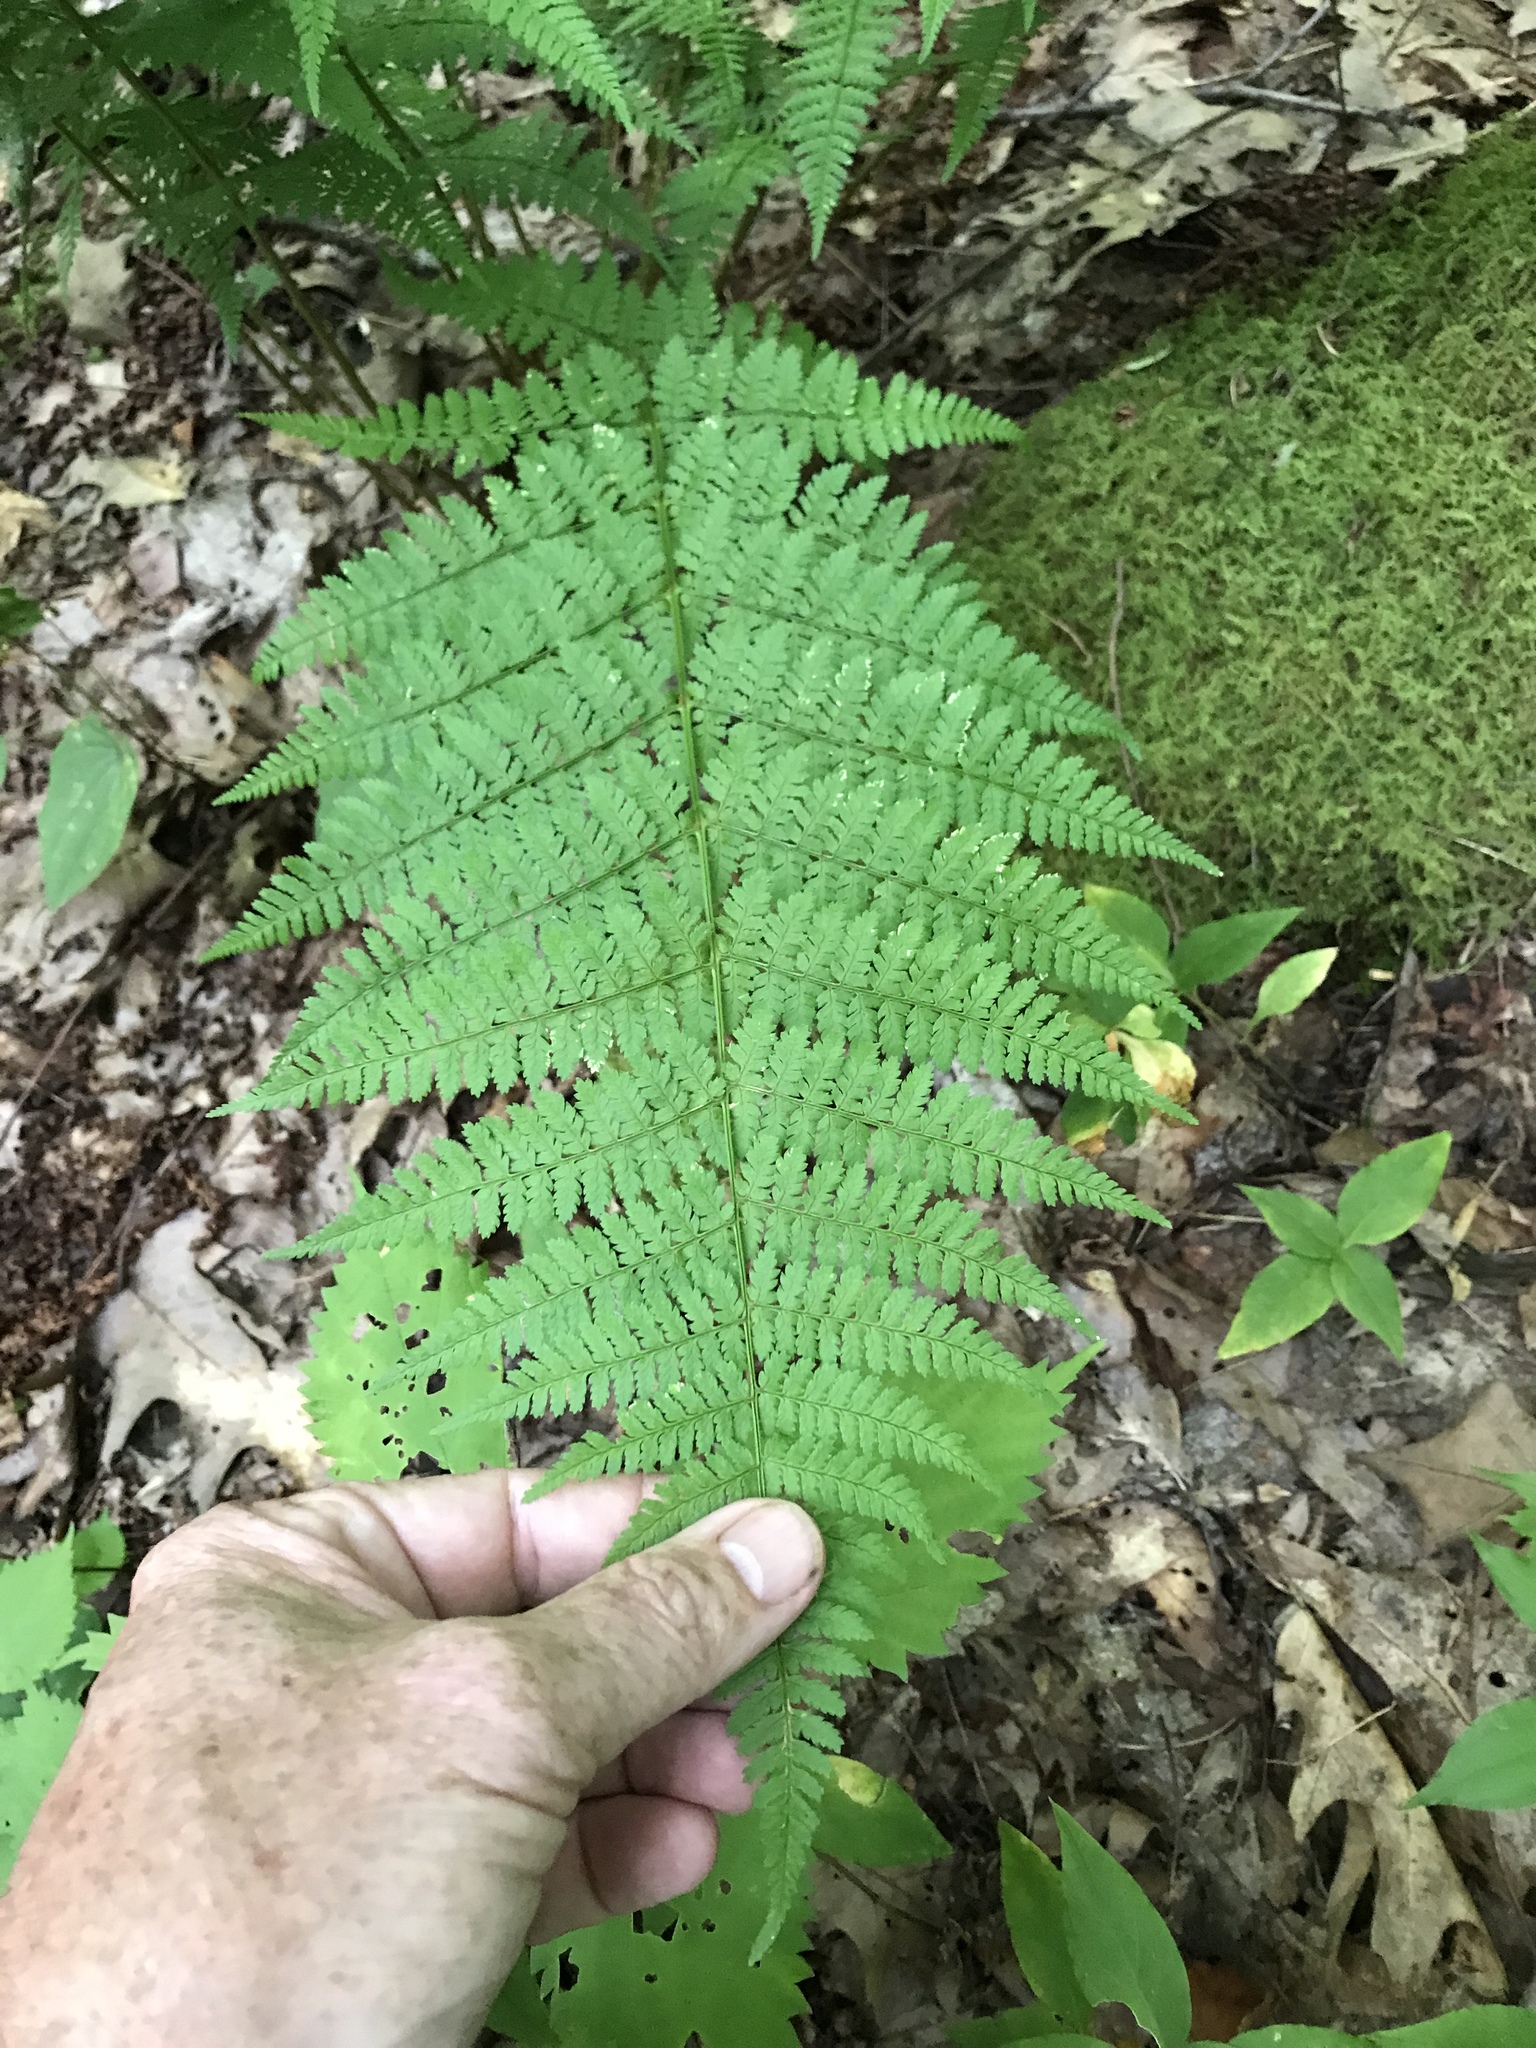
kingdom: Plantae
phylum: Tracheophyta
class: Polypodiopsida
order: Polypodiales
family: Dryopteridaceae
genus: Dryopteris
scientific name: Dryopteris intermedia
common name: Evergreen wood fern
